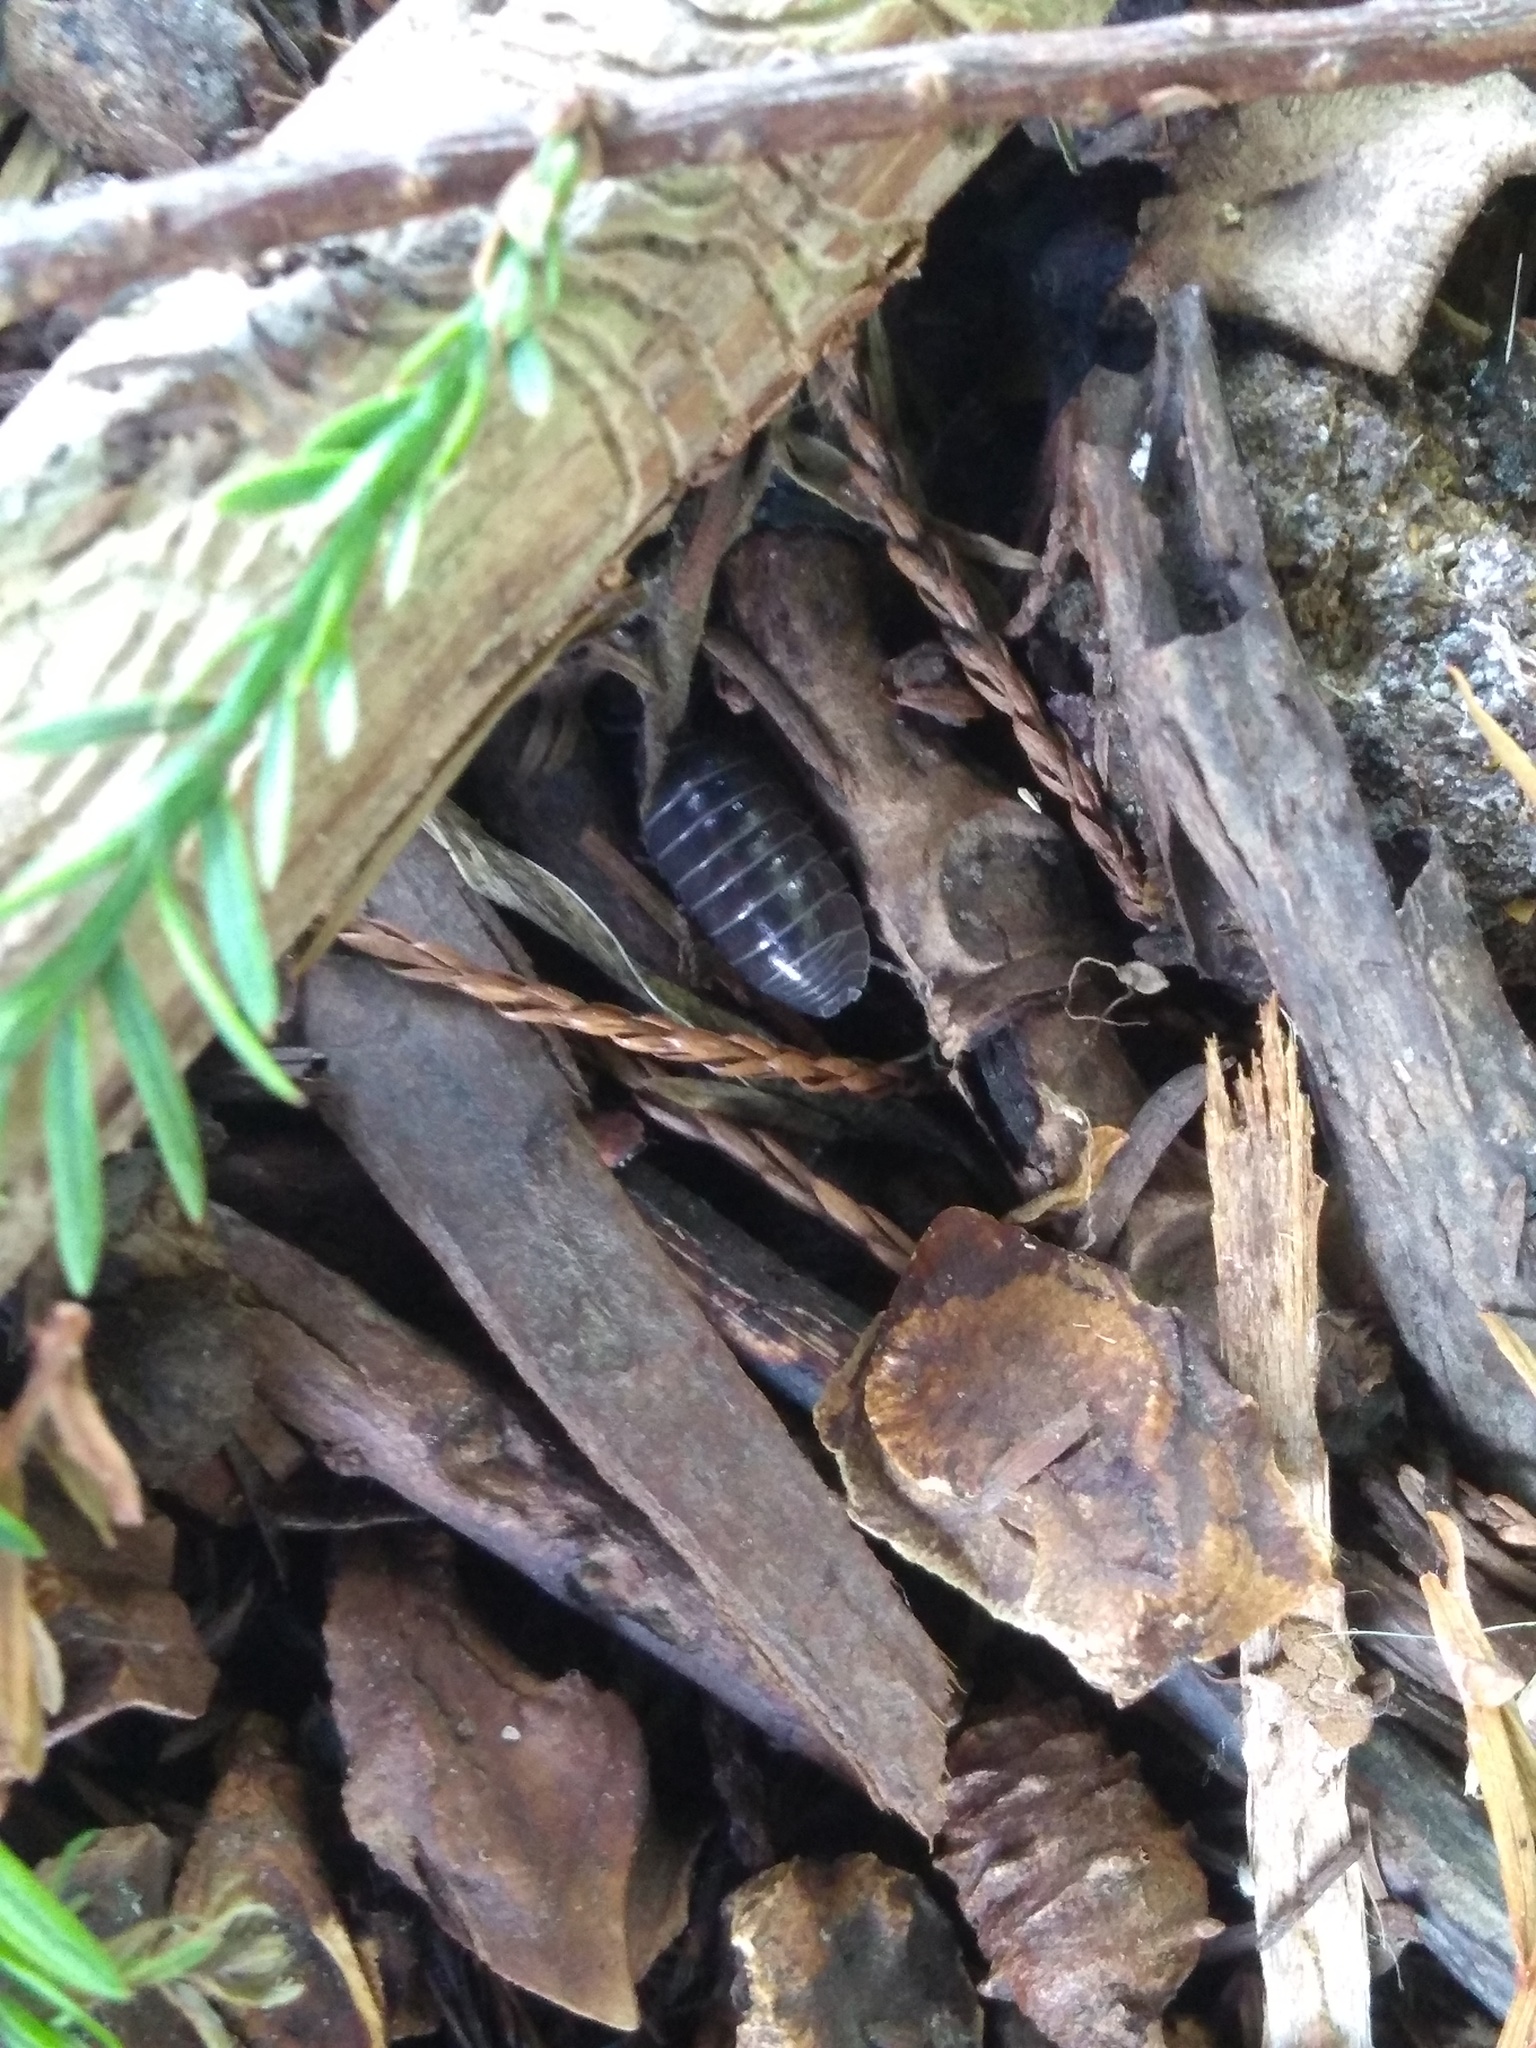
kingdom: Animalia
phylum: Arthropoda
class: Malacostraca
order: Isopoda
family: Armadillidiidae
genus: Armadillidium
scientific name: Armadillidium vulgare
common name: Common pill woodlouse
